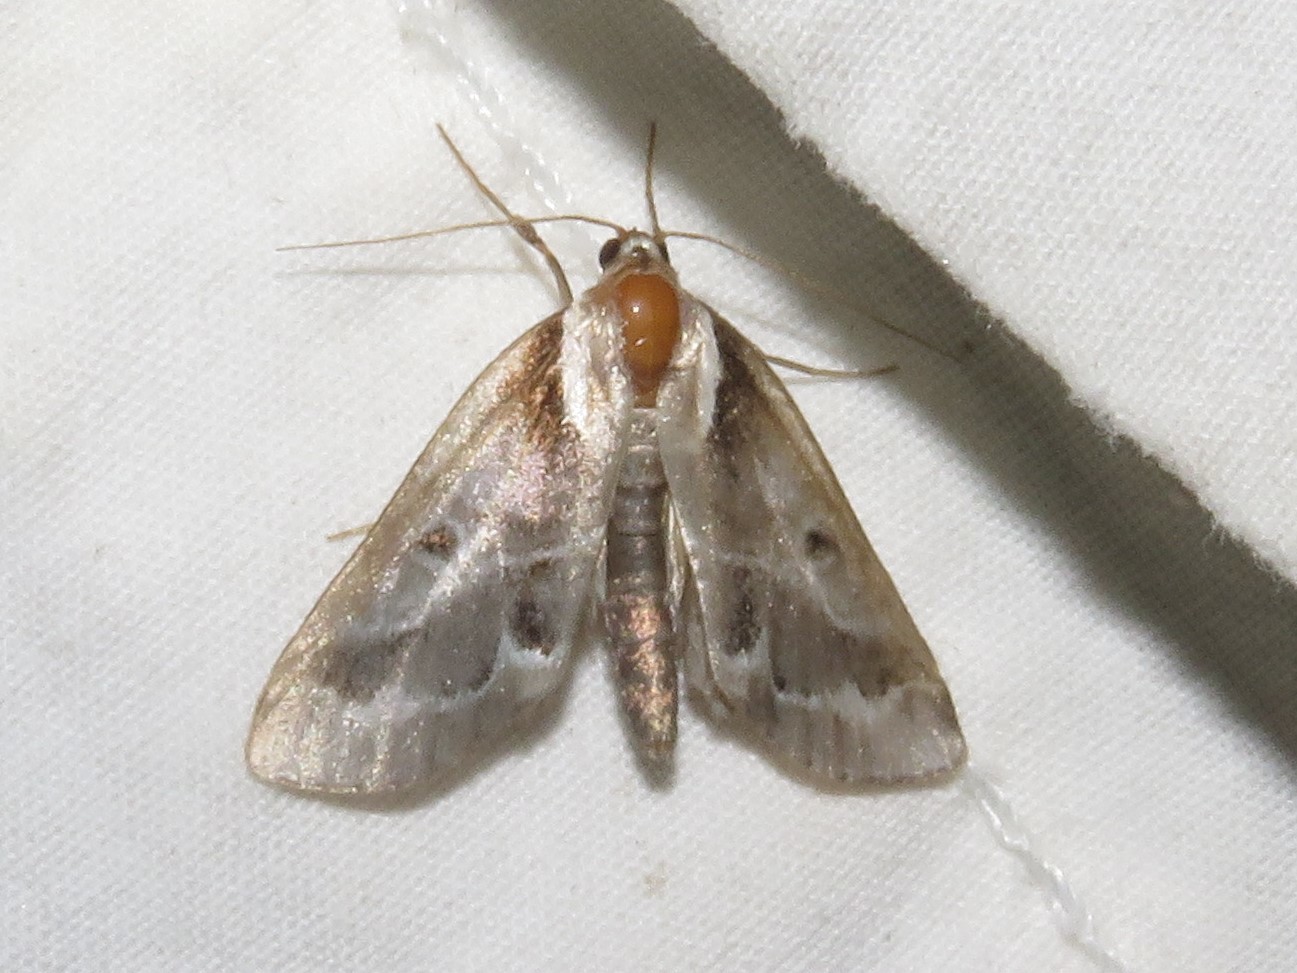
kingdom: Animalia
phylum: Arthropoda
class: Insecta
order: Lepidoptera
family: Nolidae
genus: Baileya
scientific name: Baileya doubledayi
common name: Doubleday's baileya moth
